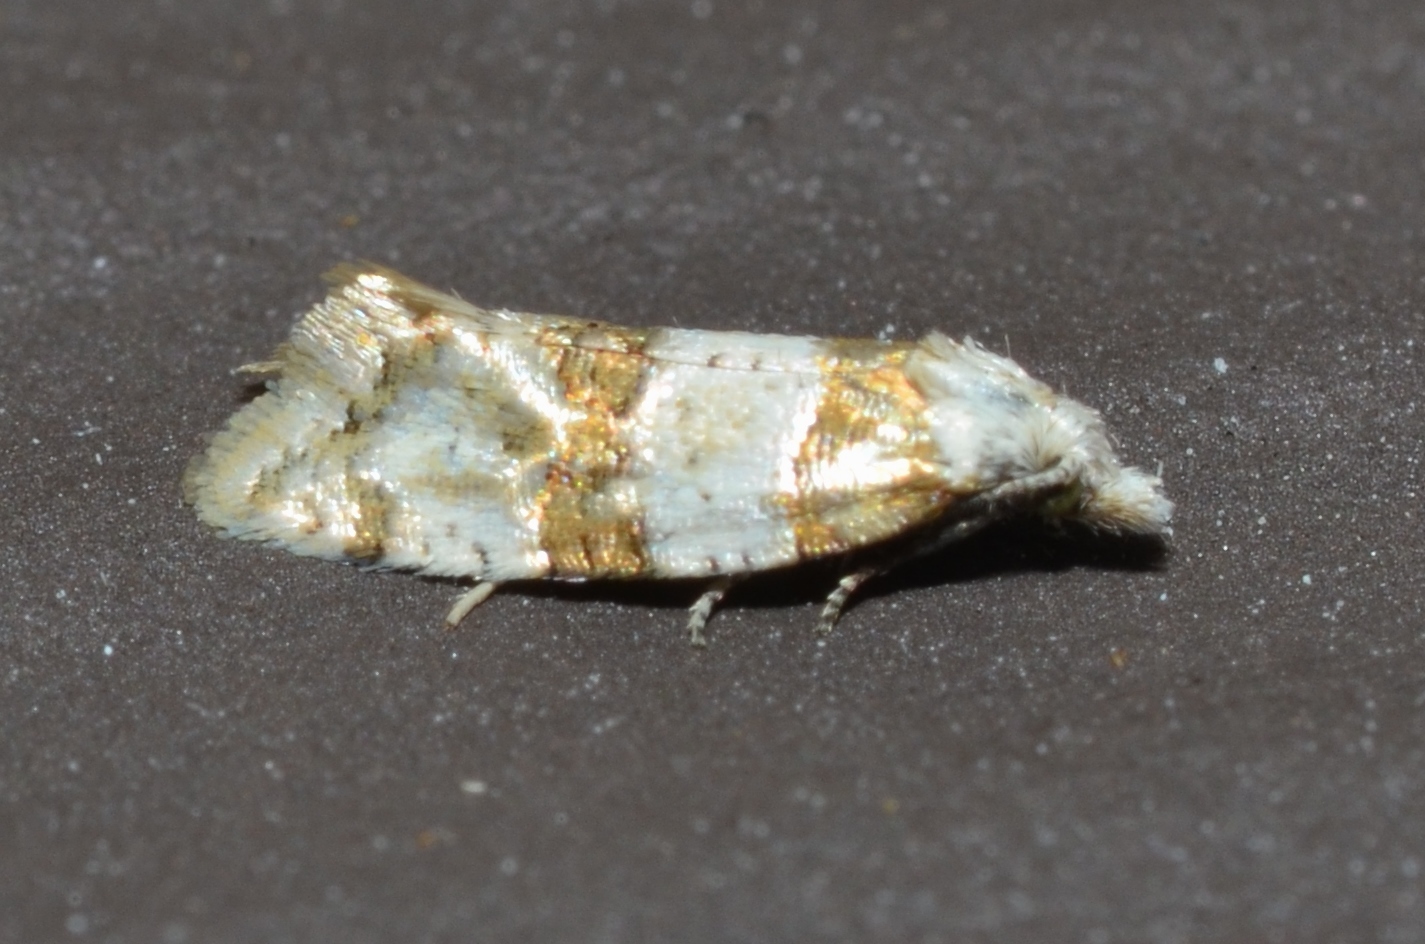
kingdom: Animalia
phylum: Arthropoda
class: Insecta
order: Lepidoptera
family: Tortricidae
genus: Aethes
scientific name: Aethes argentilimitana
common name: Silver-bordered aethes
